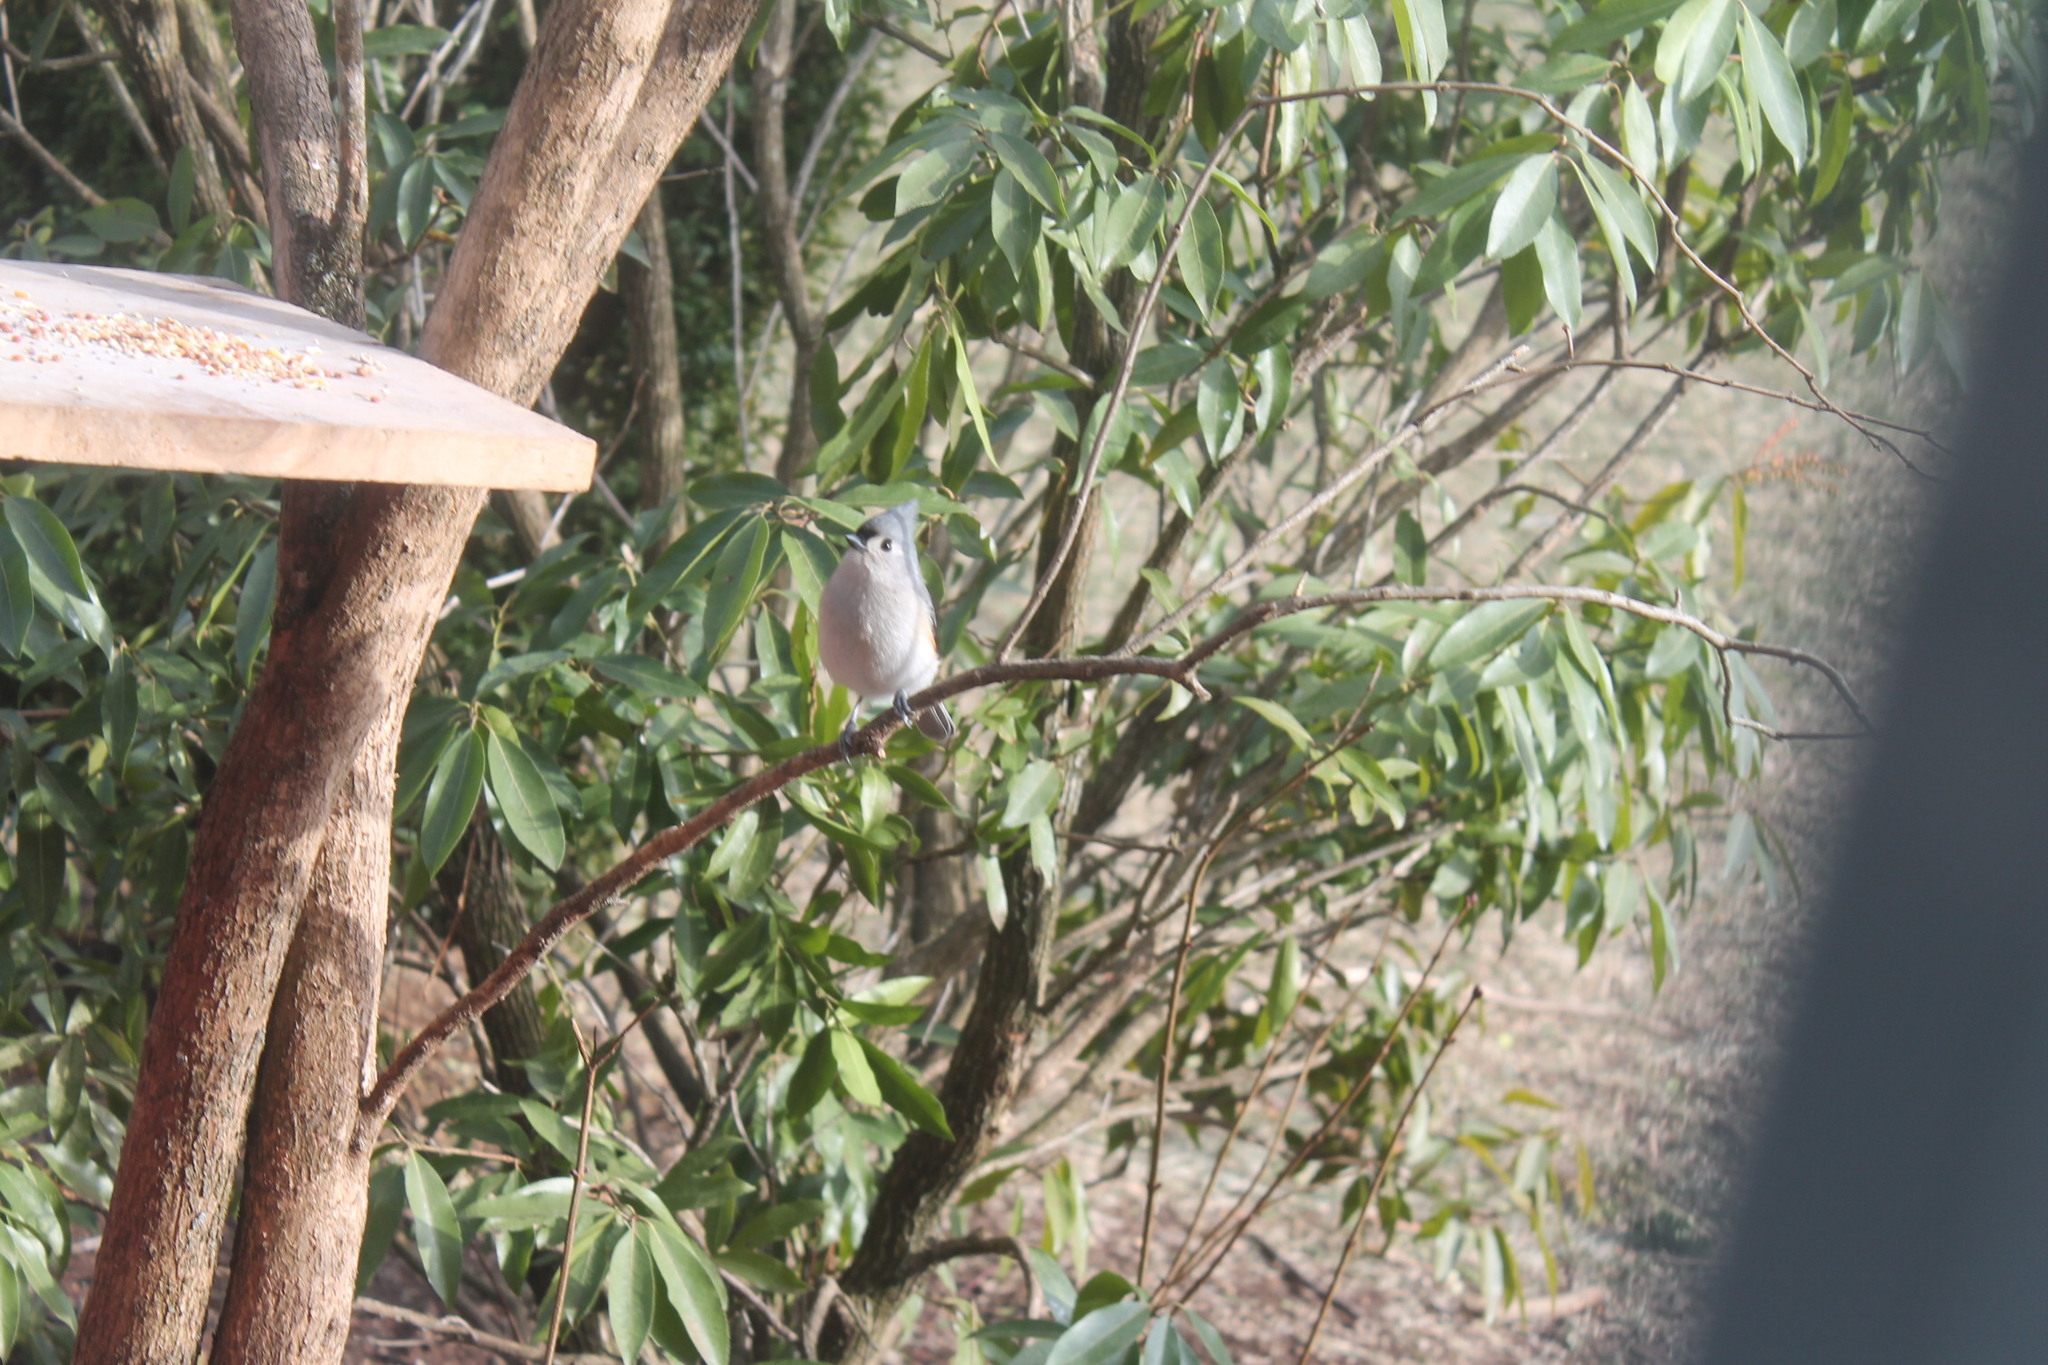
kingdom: Animalia
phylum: Chordata
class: Aves
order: Passeriformes
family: Paridae
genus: Baeolophus
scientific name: Baeolophus bicolor
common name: Tufted titmouse
